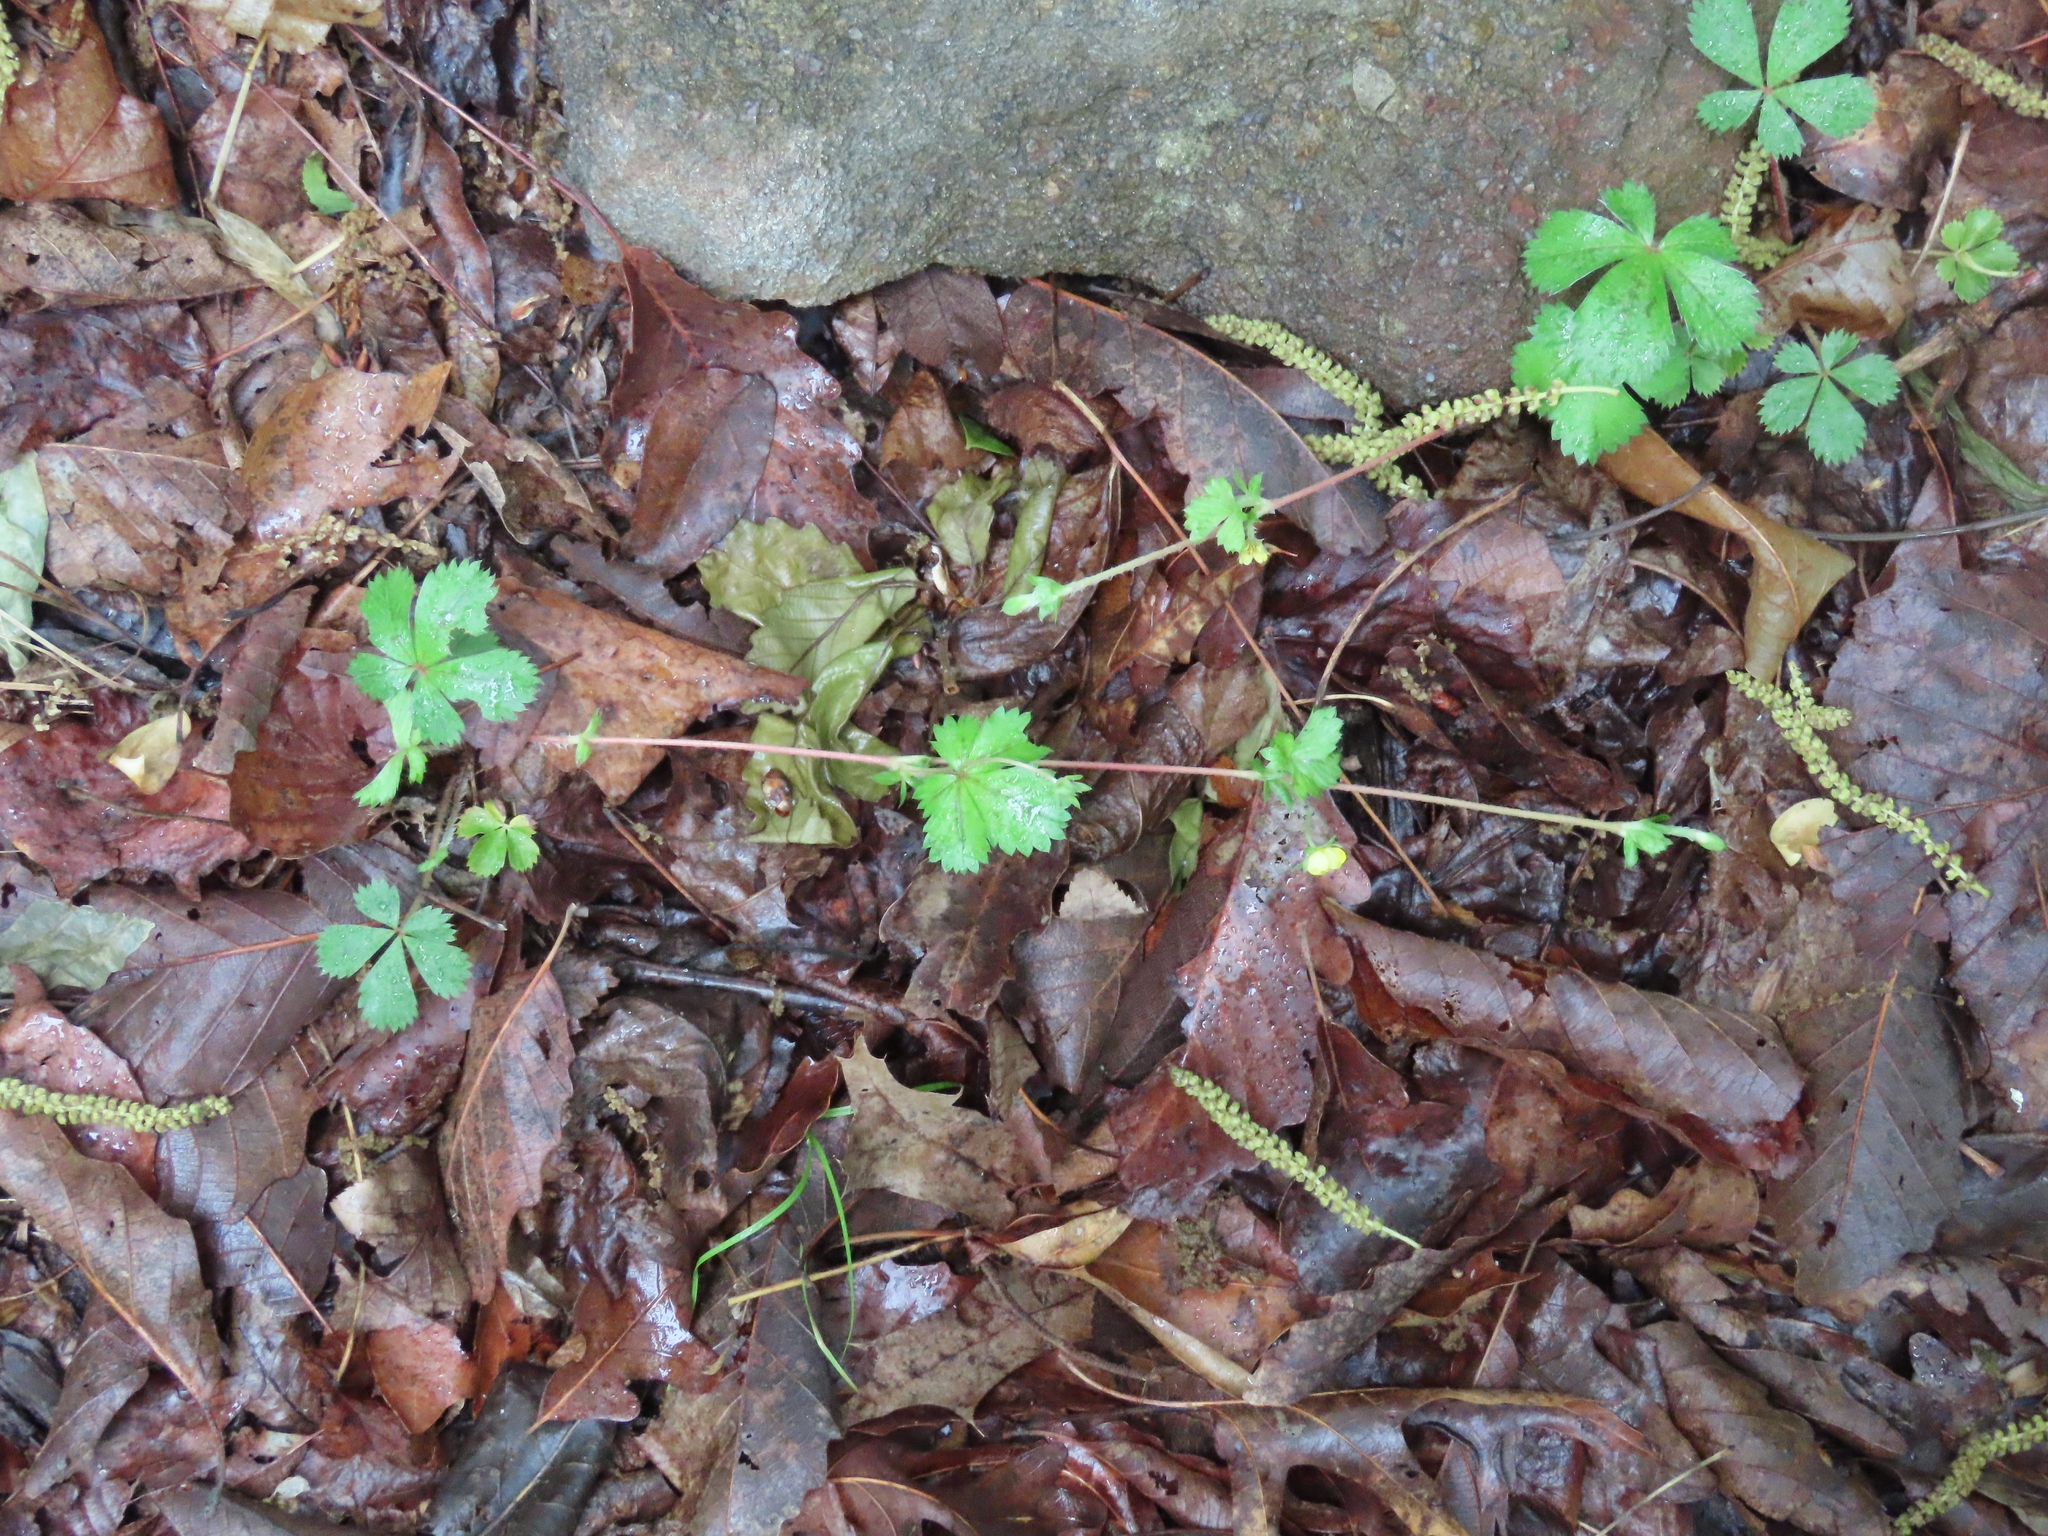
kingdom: Plantae
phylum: Tracheophyta
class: Magnoliopsida
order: Rosales
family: Rosaceae
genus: Potentilla
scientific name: Potentilla canadensis
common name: Canada cinquefoil
